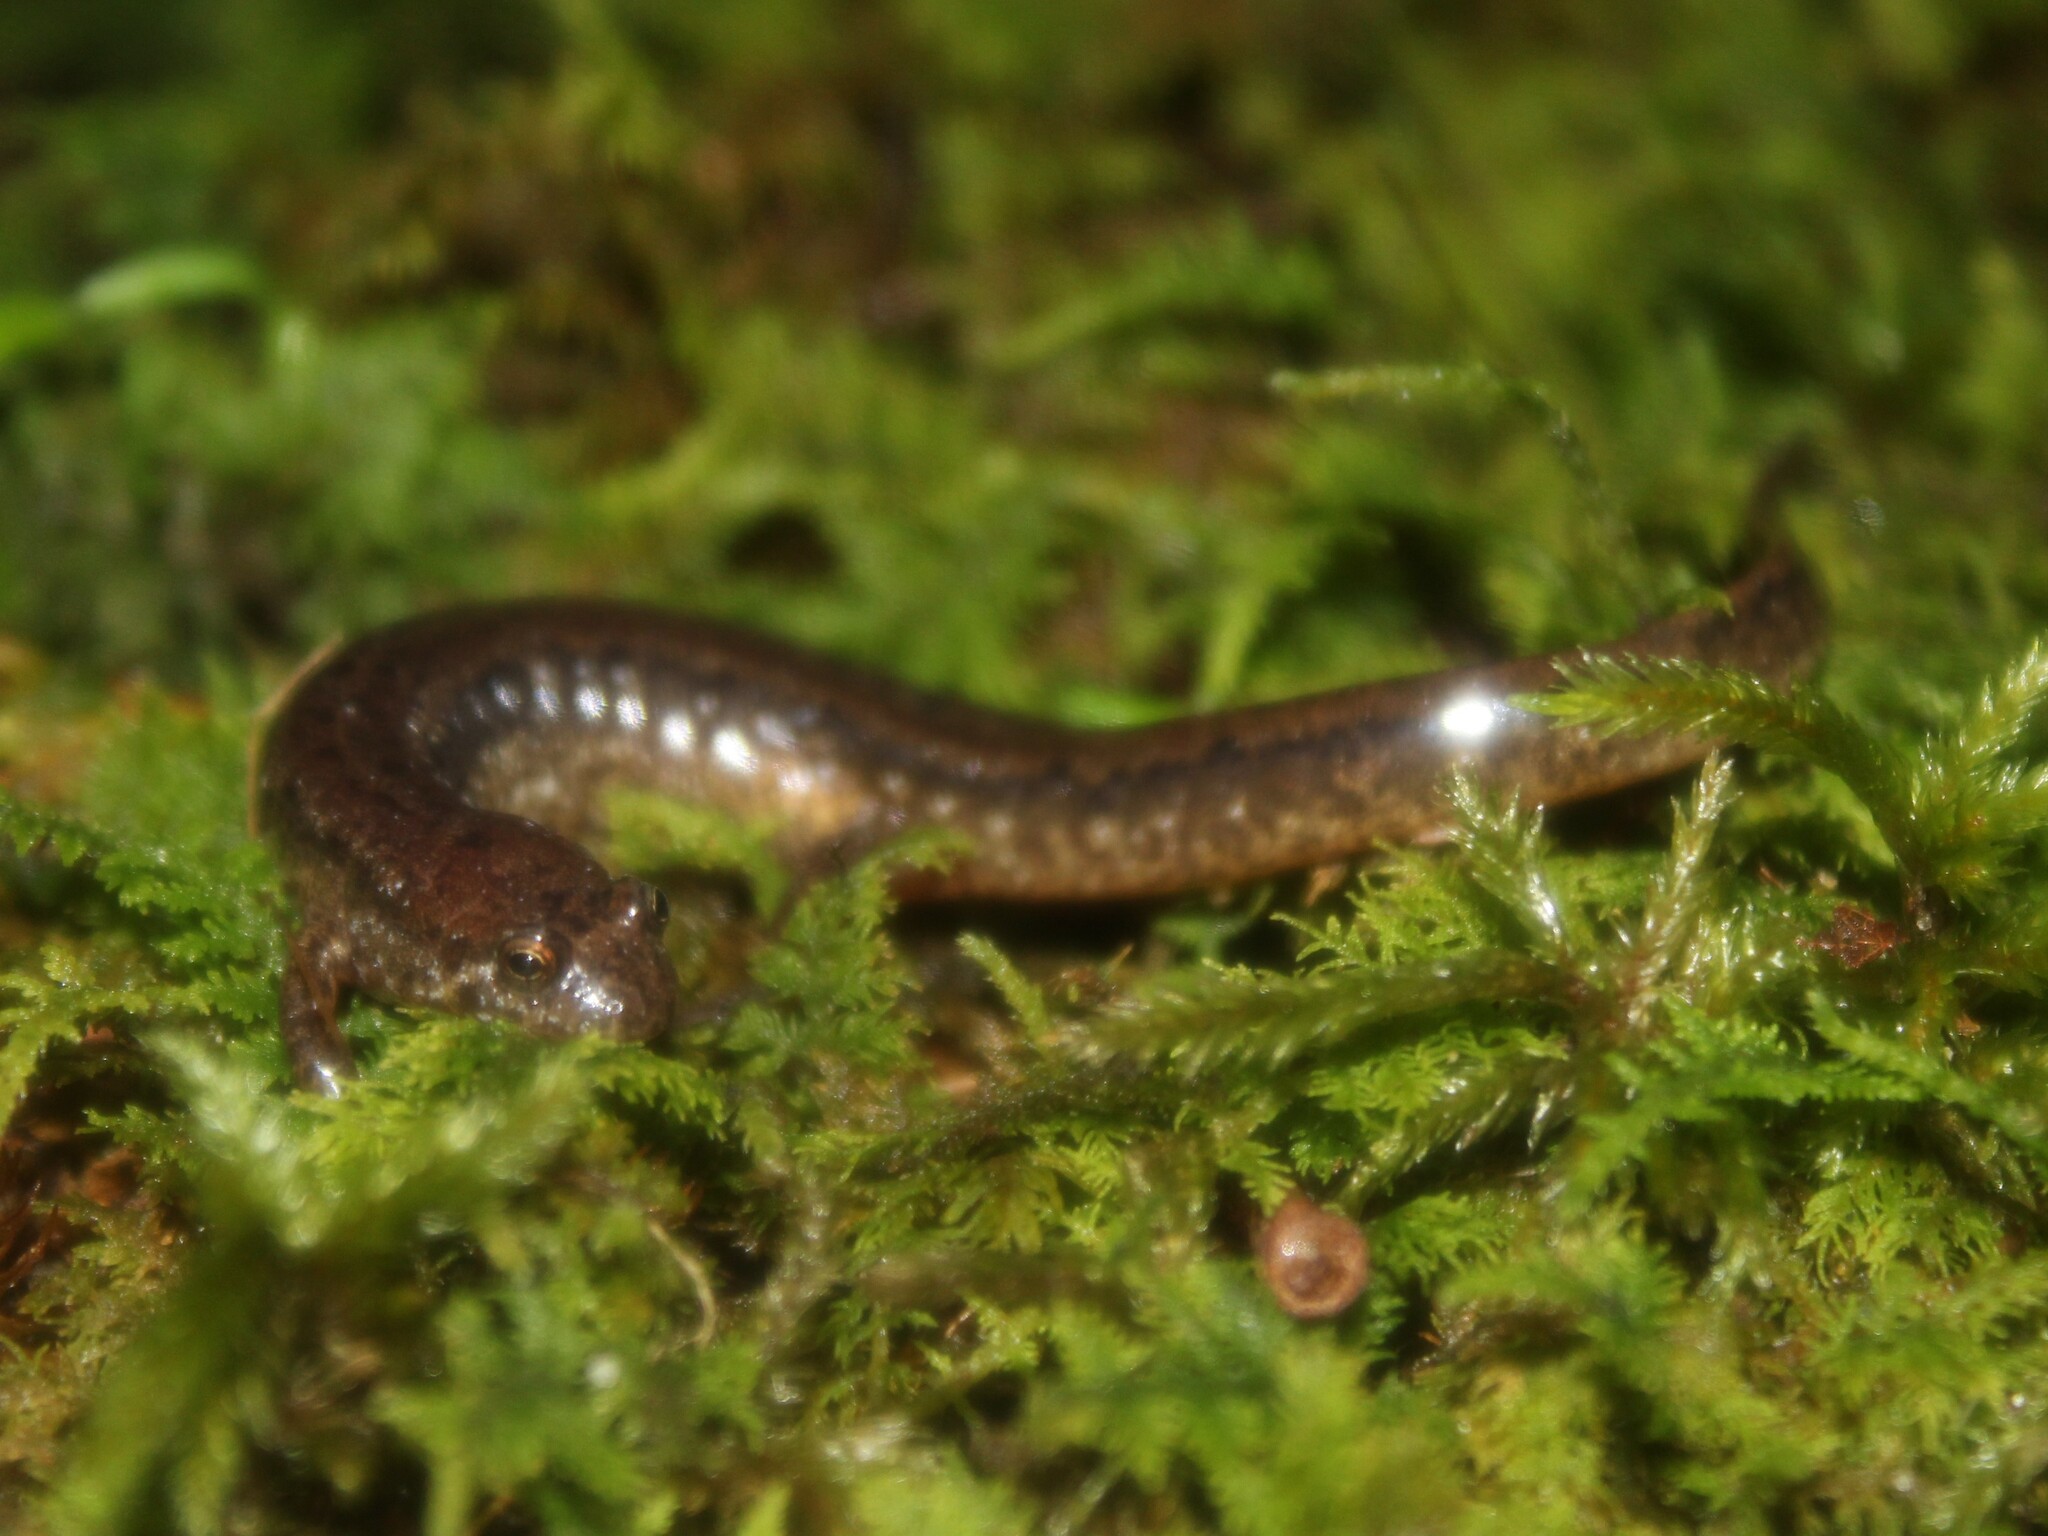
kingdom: Animalia
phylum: Chordata
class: Amphibia
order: Caudata
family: Plethodontidae
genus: Desmognathus
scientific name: Desmognathus fuscus
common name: Northern dusky salamander
